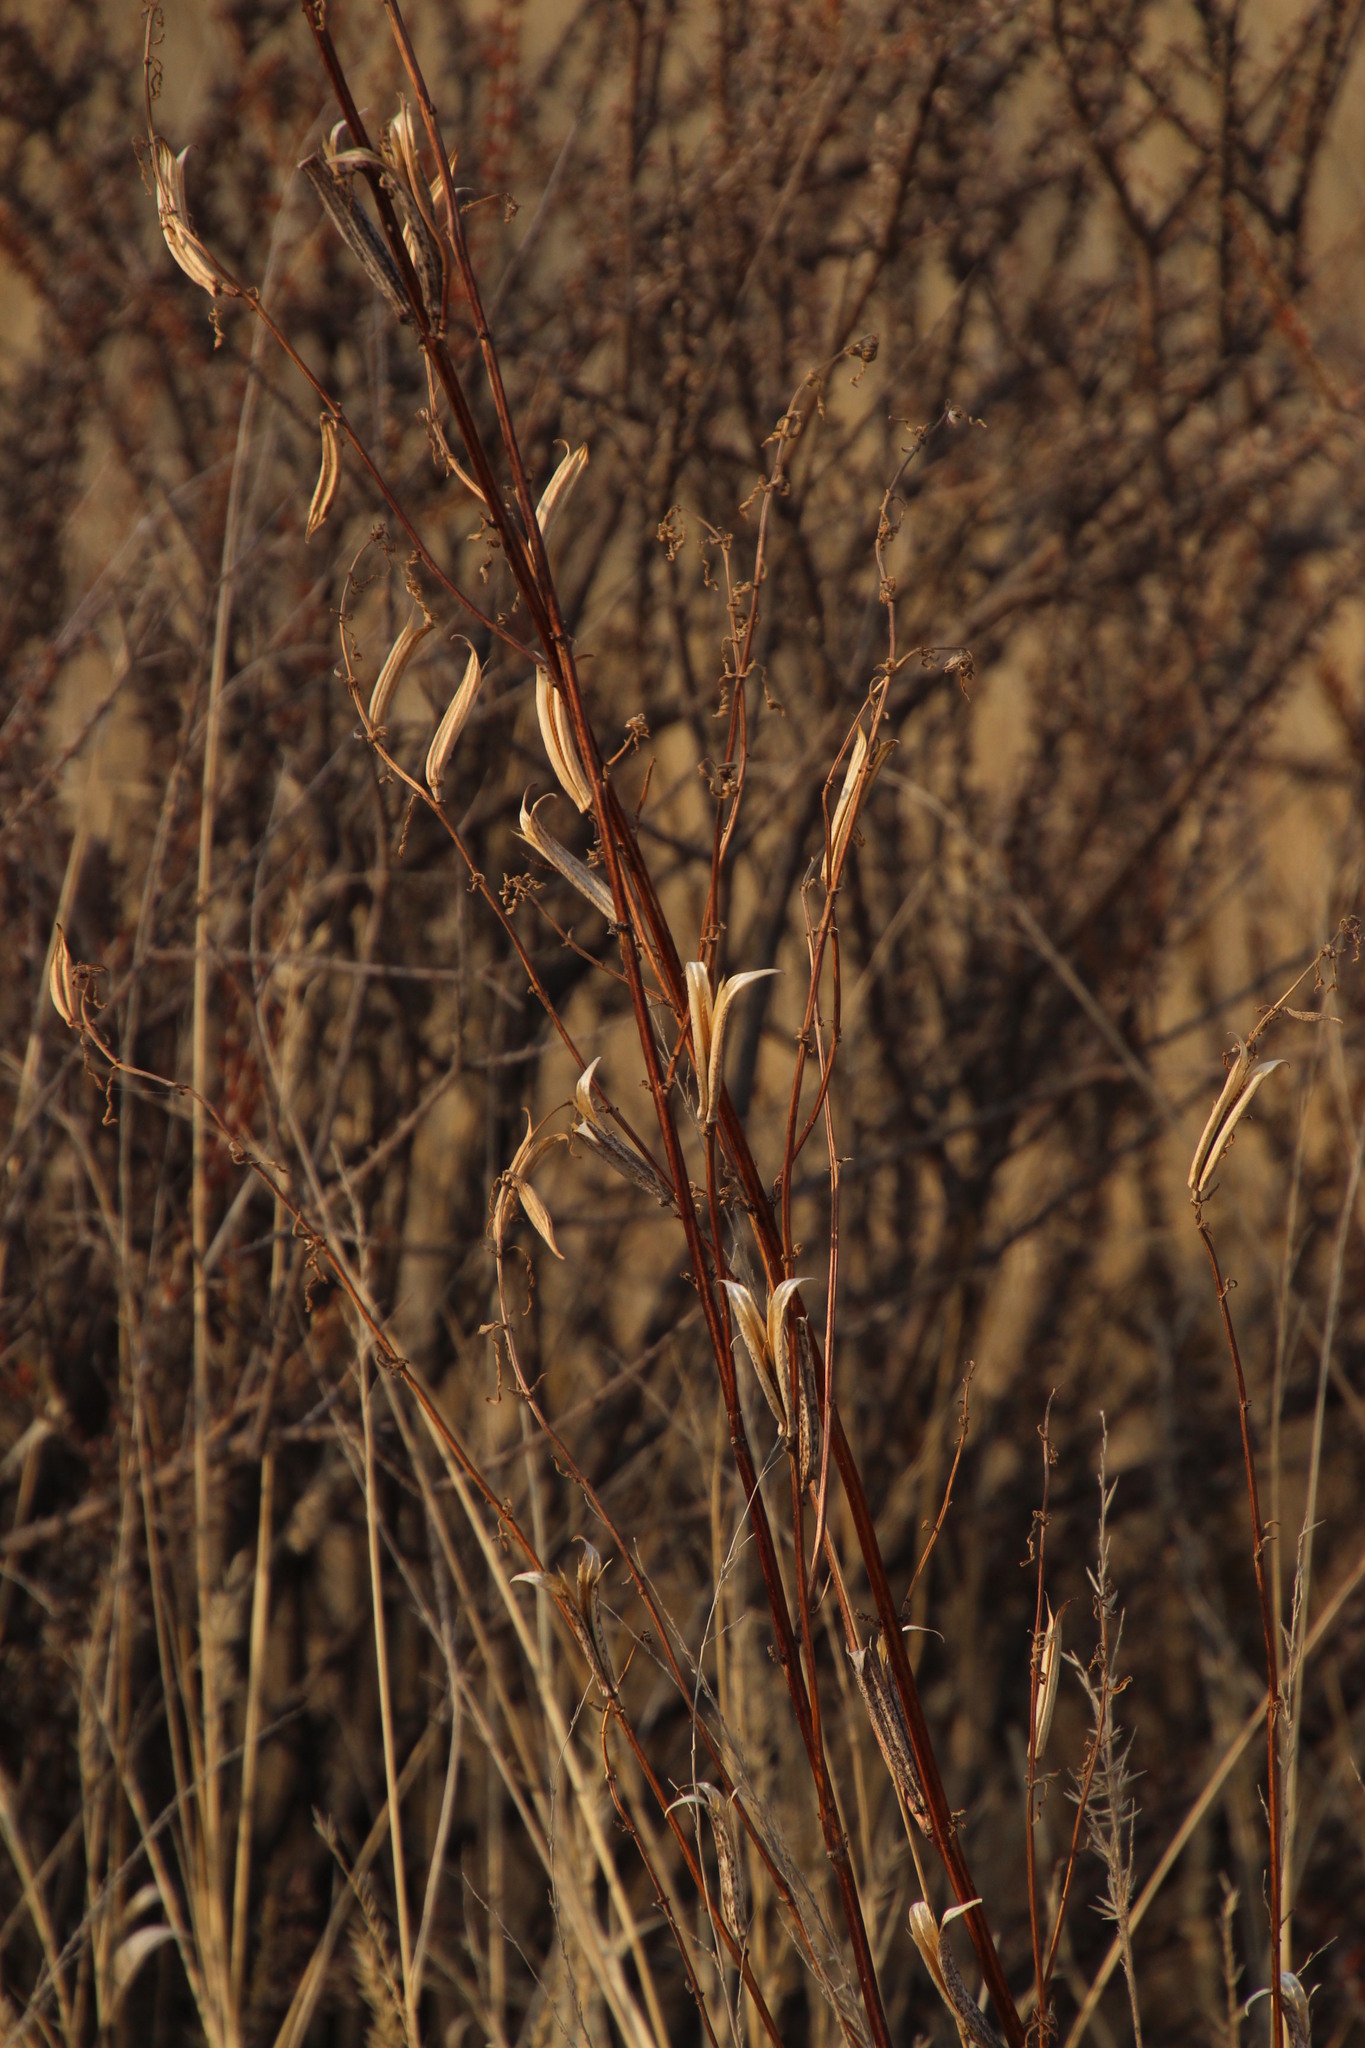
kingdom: Plantae
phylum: Tracheophyta
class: Magnoliopsida
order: Lamiales
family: Pedaliaceae
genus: Sesamum
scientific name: Sesamum triphyllum
